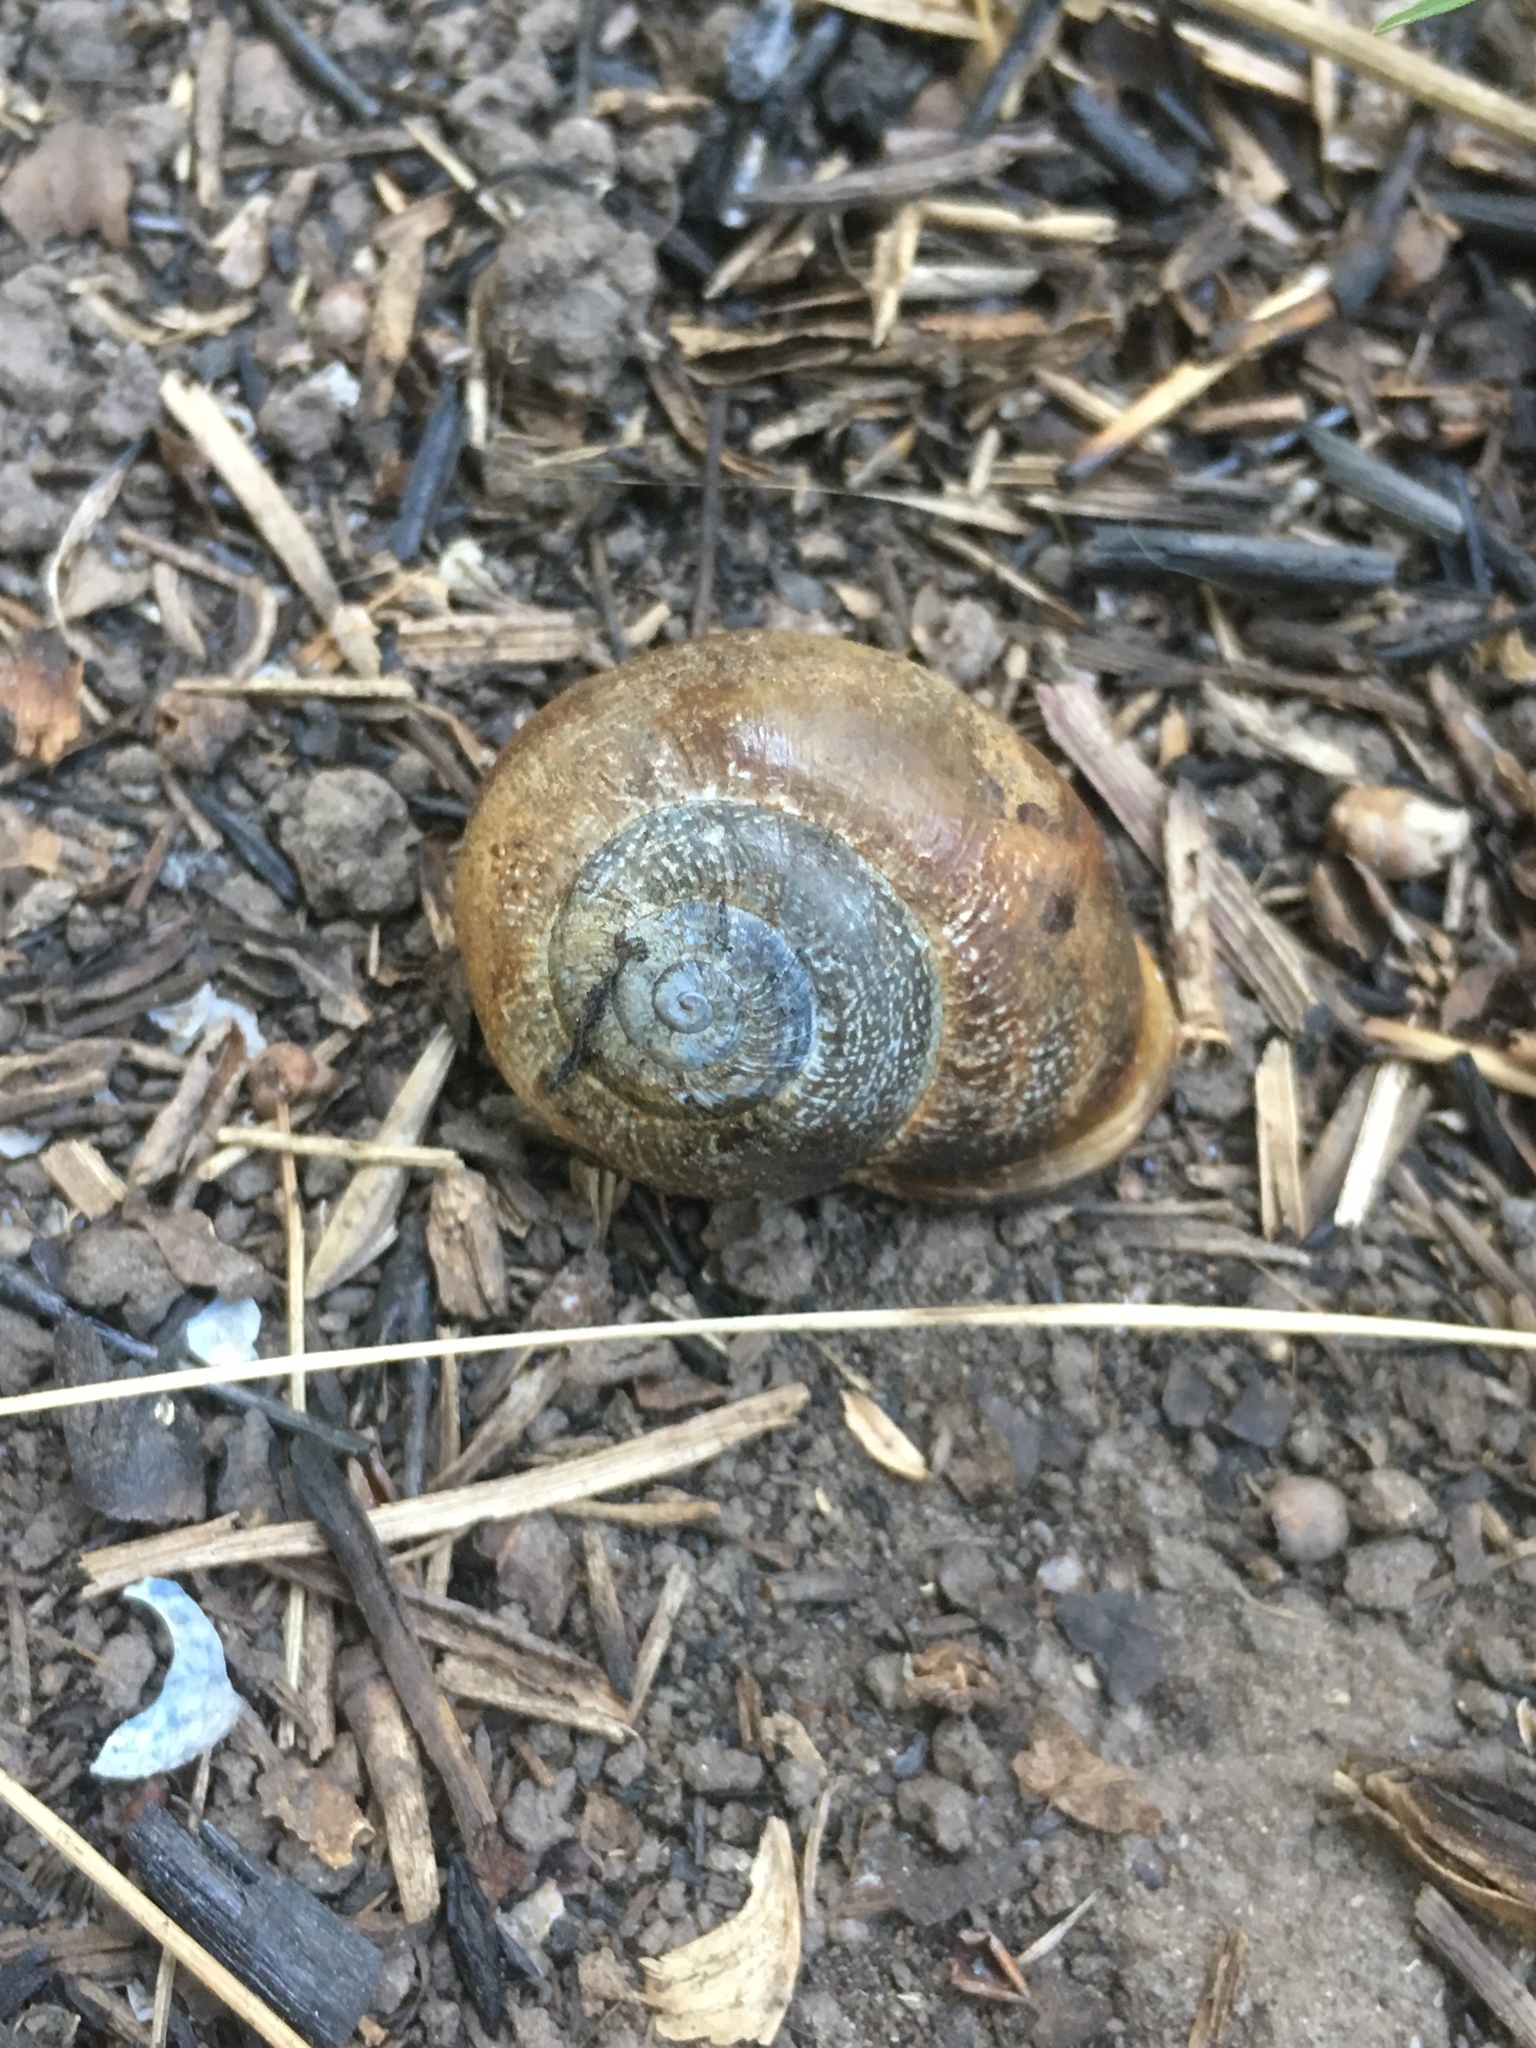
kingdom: Animalia
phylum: Mollusca
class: Gastropoda
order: Stylommatophora
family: Helicidae
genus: Otala
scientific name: Otala punctata
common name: Milk snail
